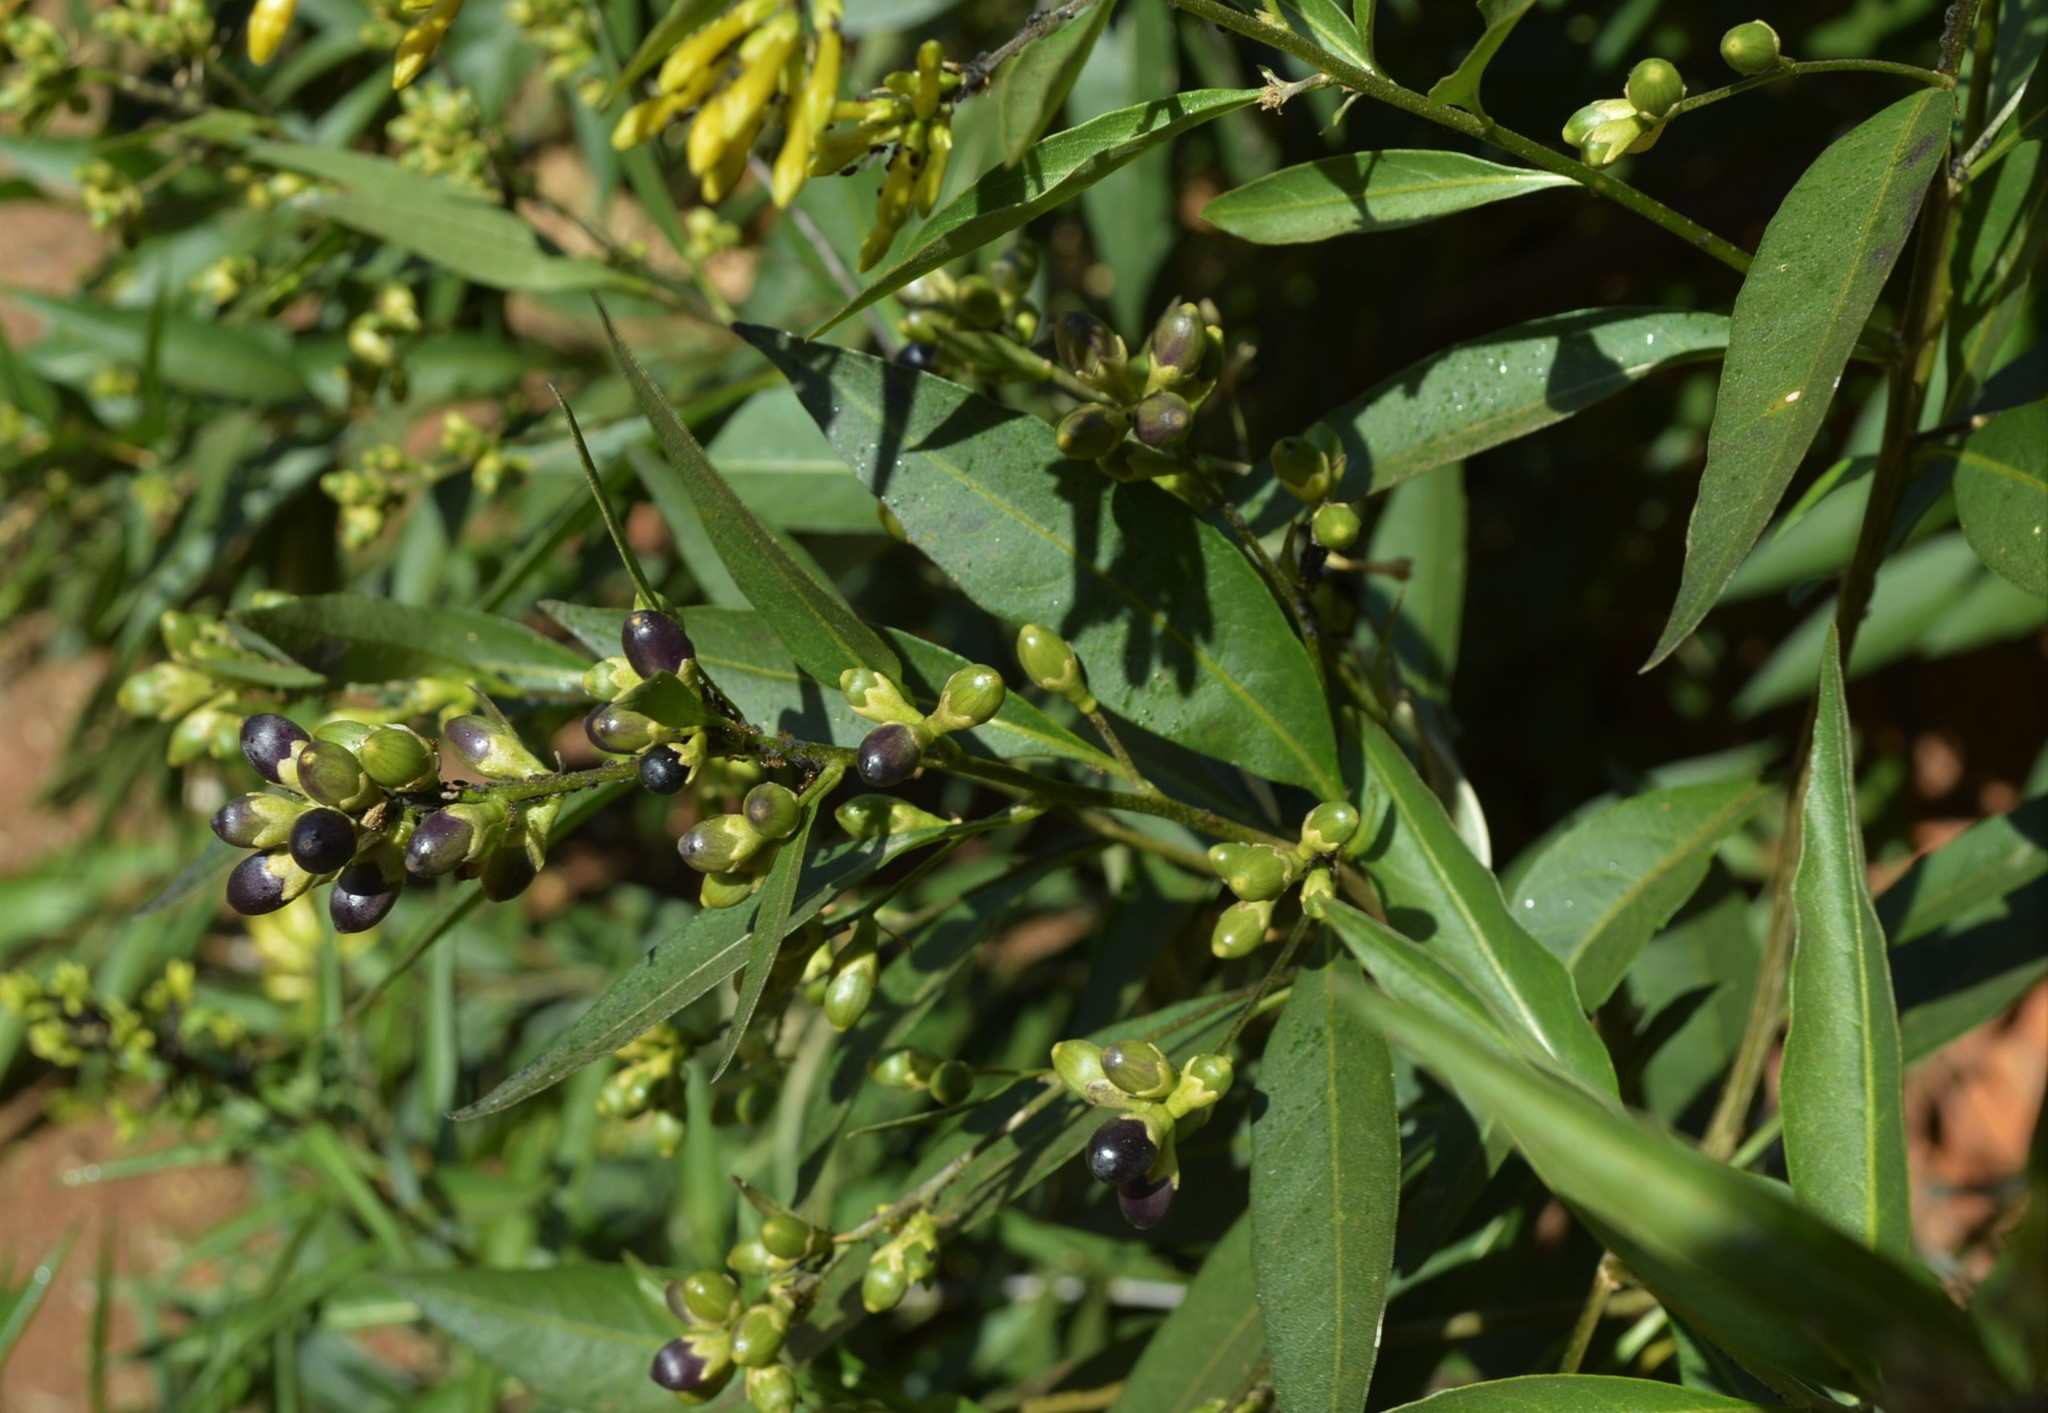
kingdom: Plantae
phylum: Tracheophyta
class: Magnoliopsida
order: Solanales
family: Solanaceae
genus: Cestrum
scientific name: Cestrum parqui
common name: Chilean cestrum
